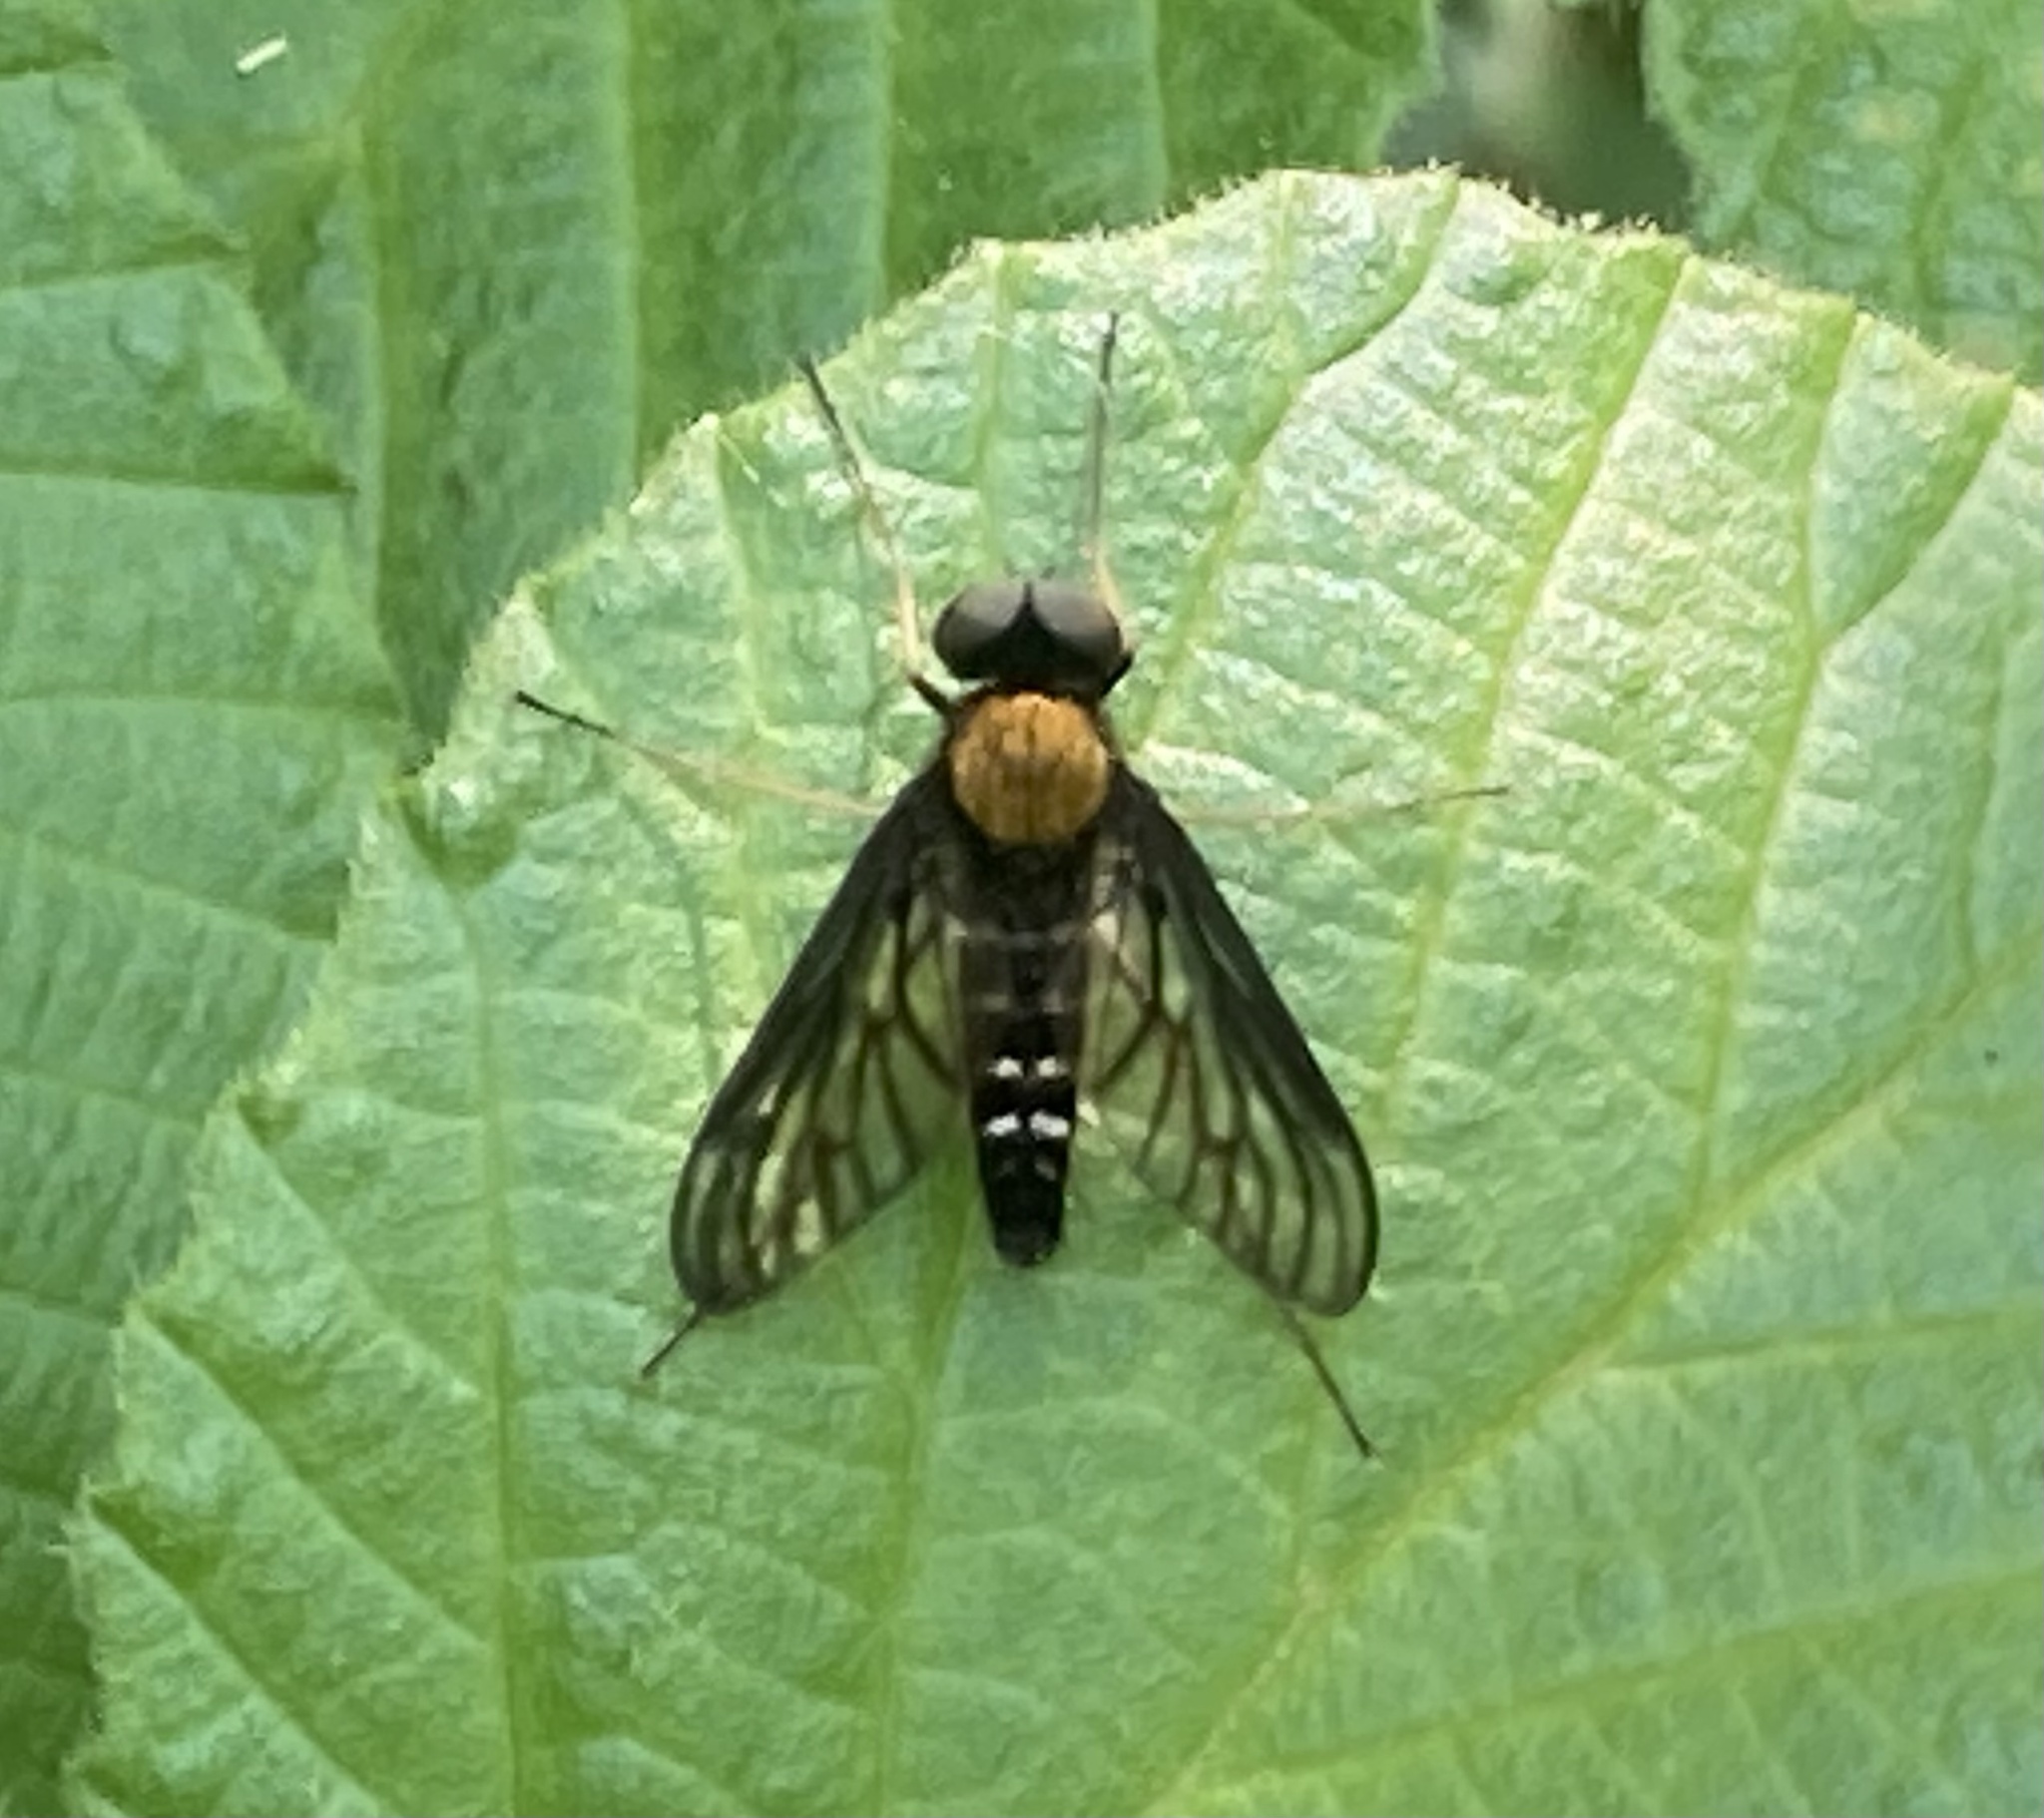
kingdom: Animalia
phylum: Arthropoda
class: Insecta
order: Diptera
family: Rhagionidae
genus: Chrysopilus
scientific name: Chrysopilus thoracicus
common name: Golden-backed snipe fly
